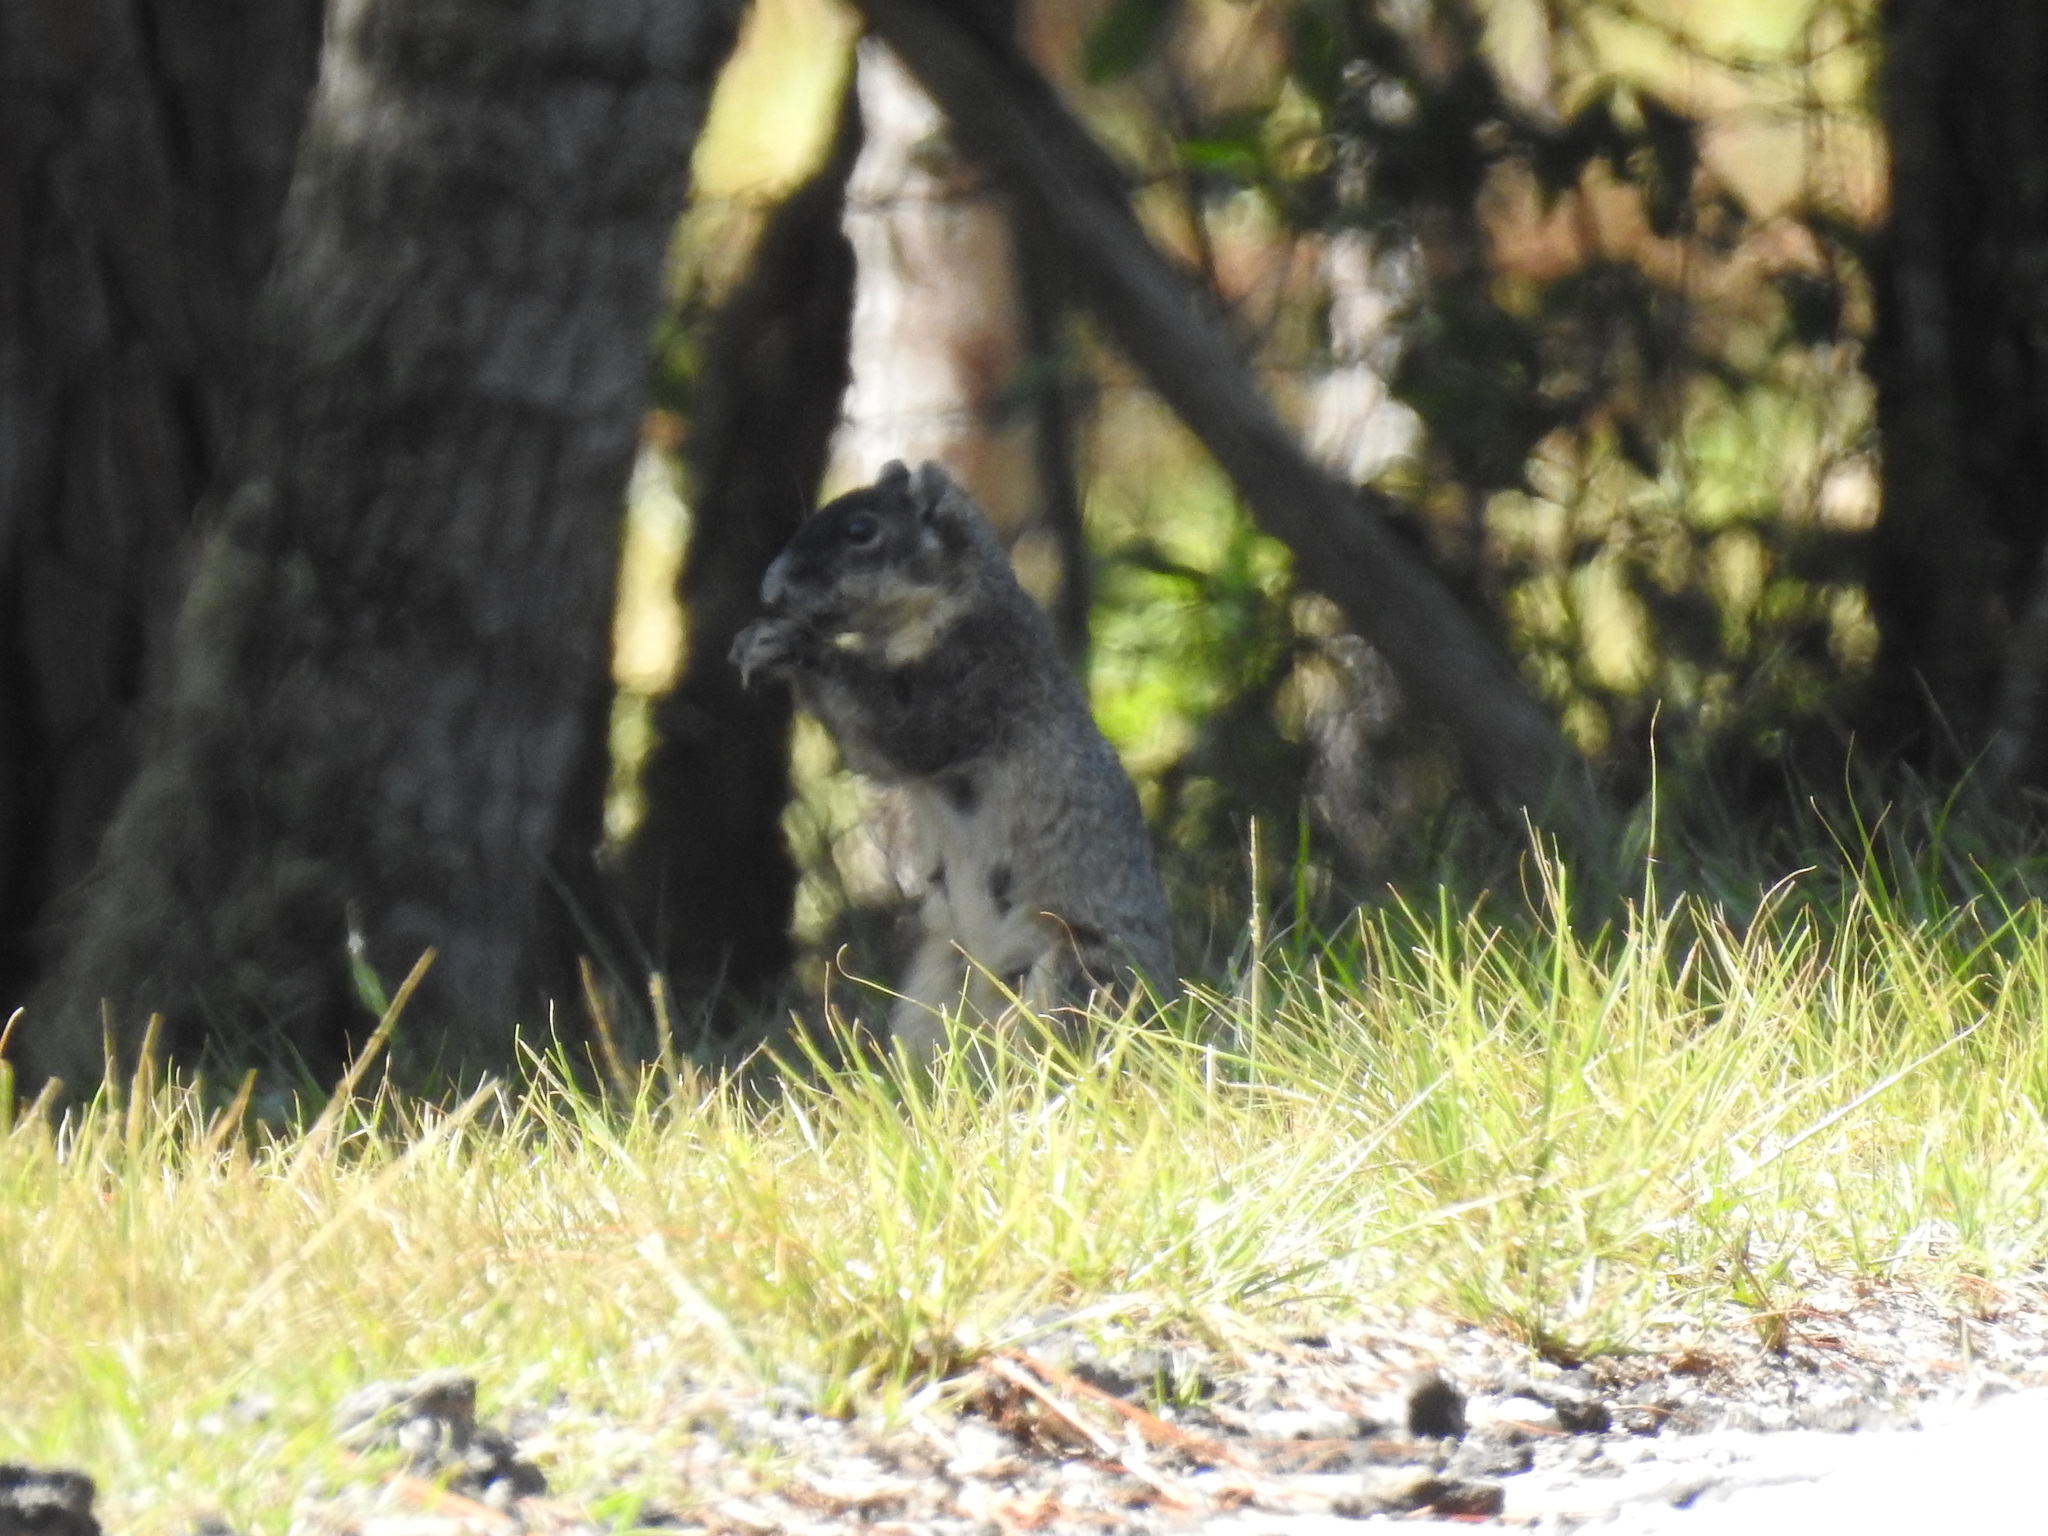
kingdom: Animalia
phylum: Chordata
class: Mammalia
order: Rodentia
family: Sciuridae
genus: Sciurus
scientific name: Sciurus niger
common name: Fox squirrel
